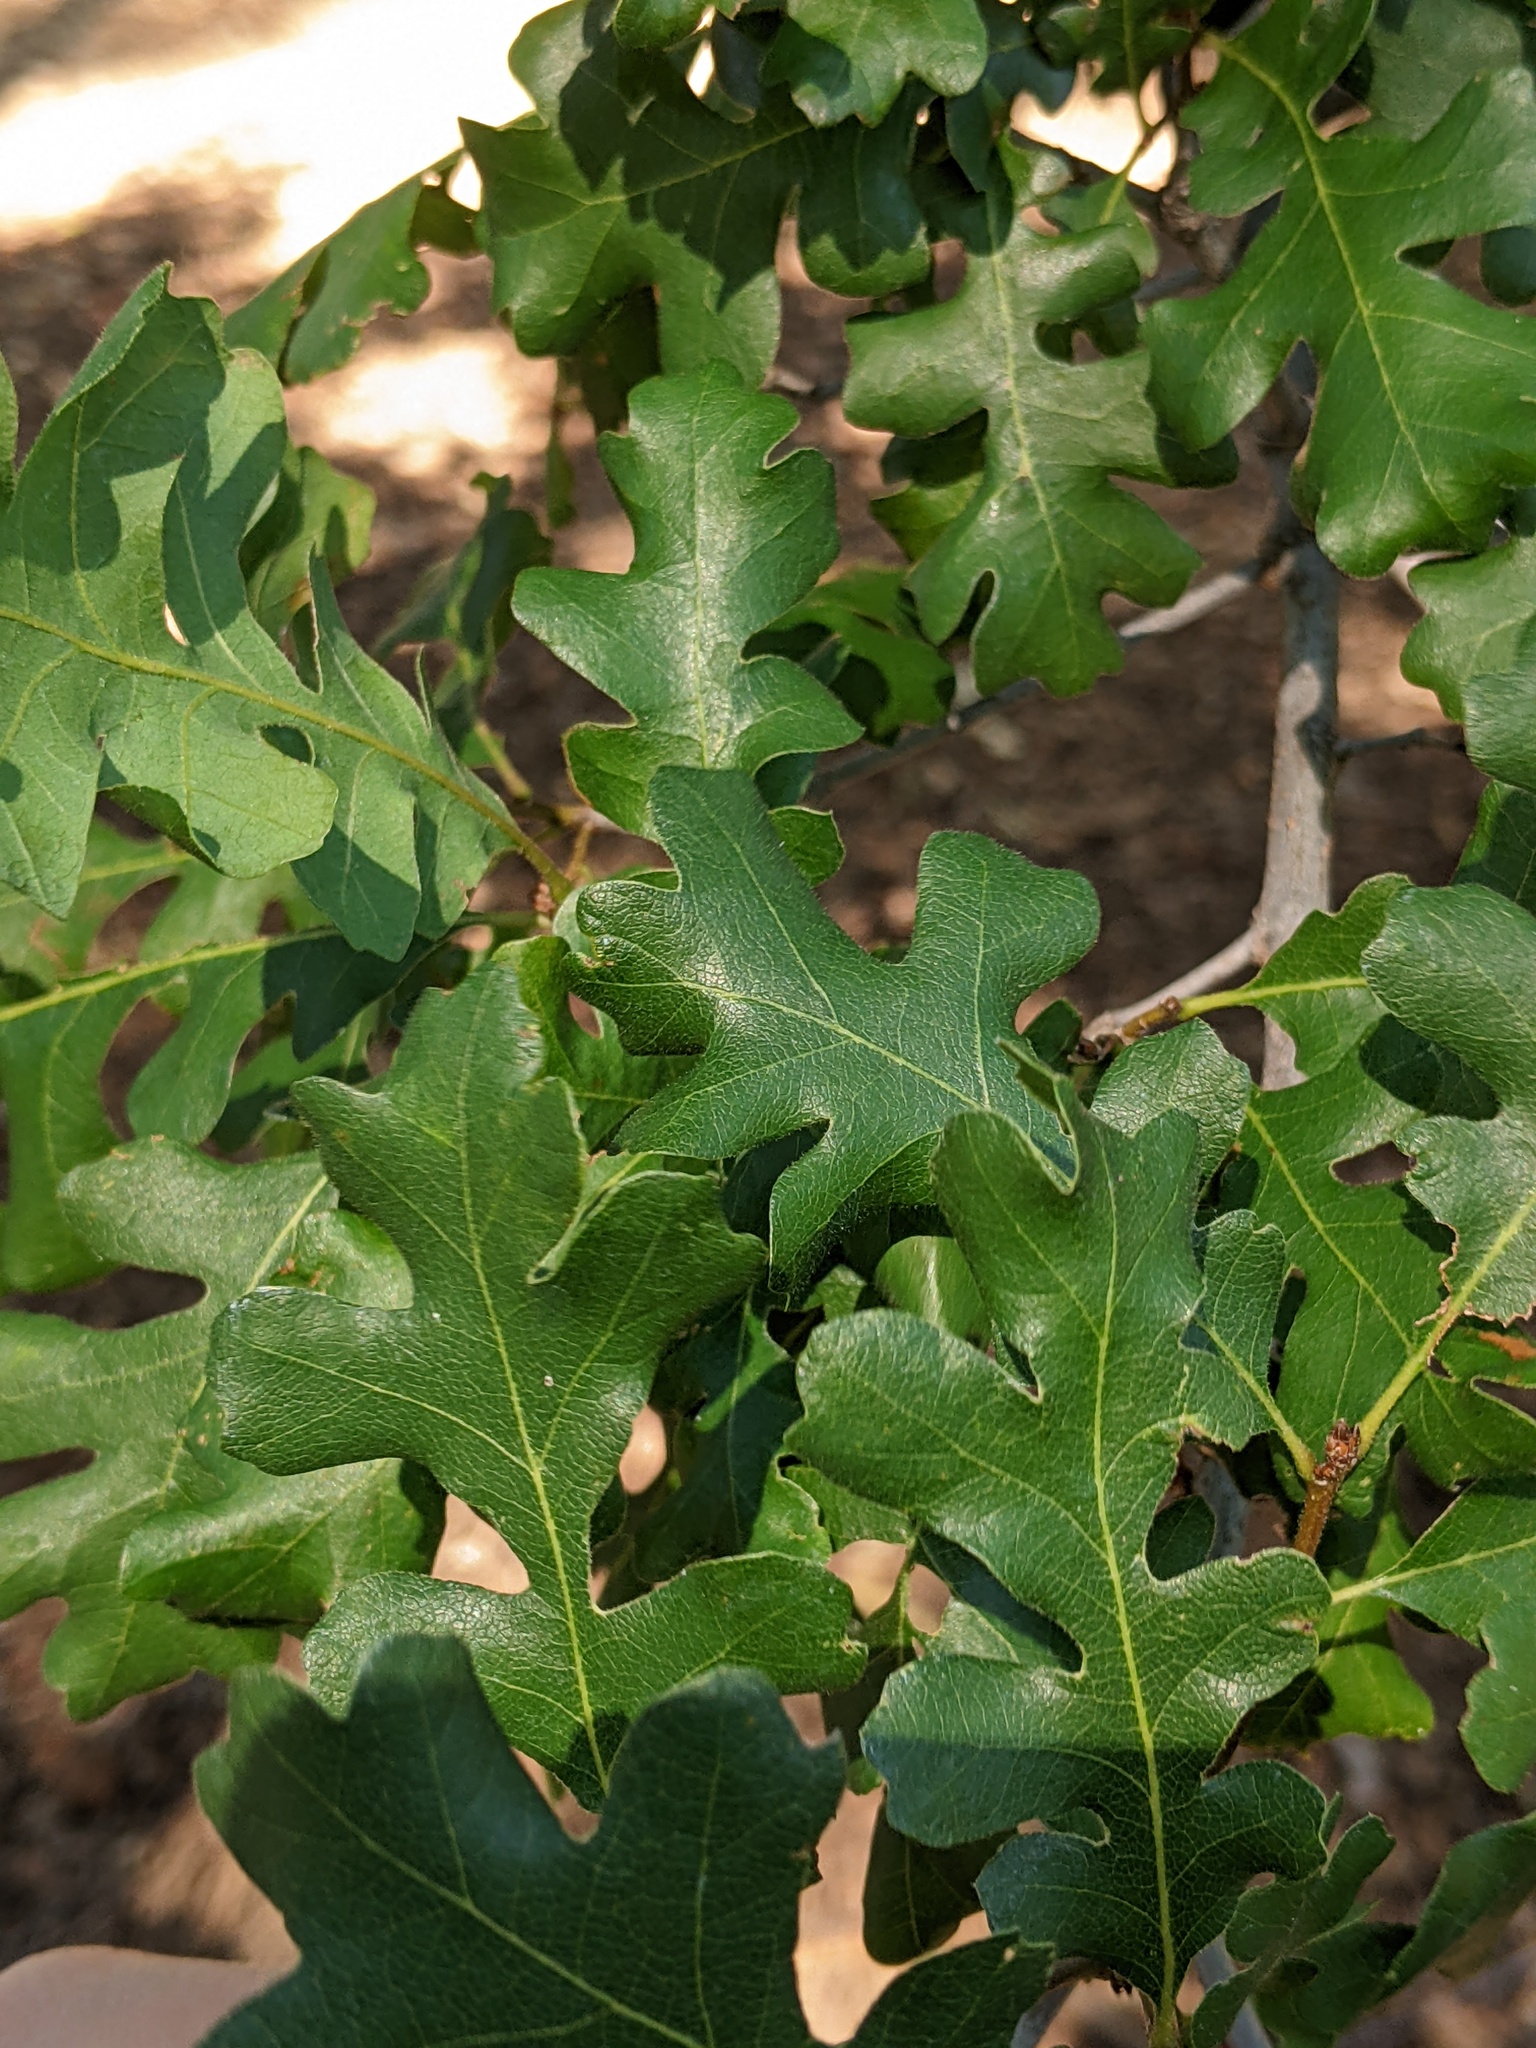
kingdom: Plantae
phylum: Tracheophyta
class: Magnoliopsida
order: Fagales
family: Fagaceae
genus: Quercus
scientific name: Quercus lobata
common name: Valley oak
